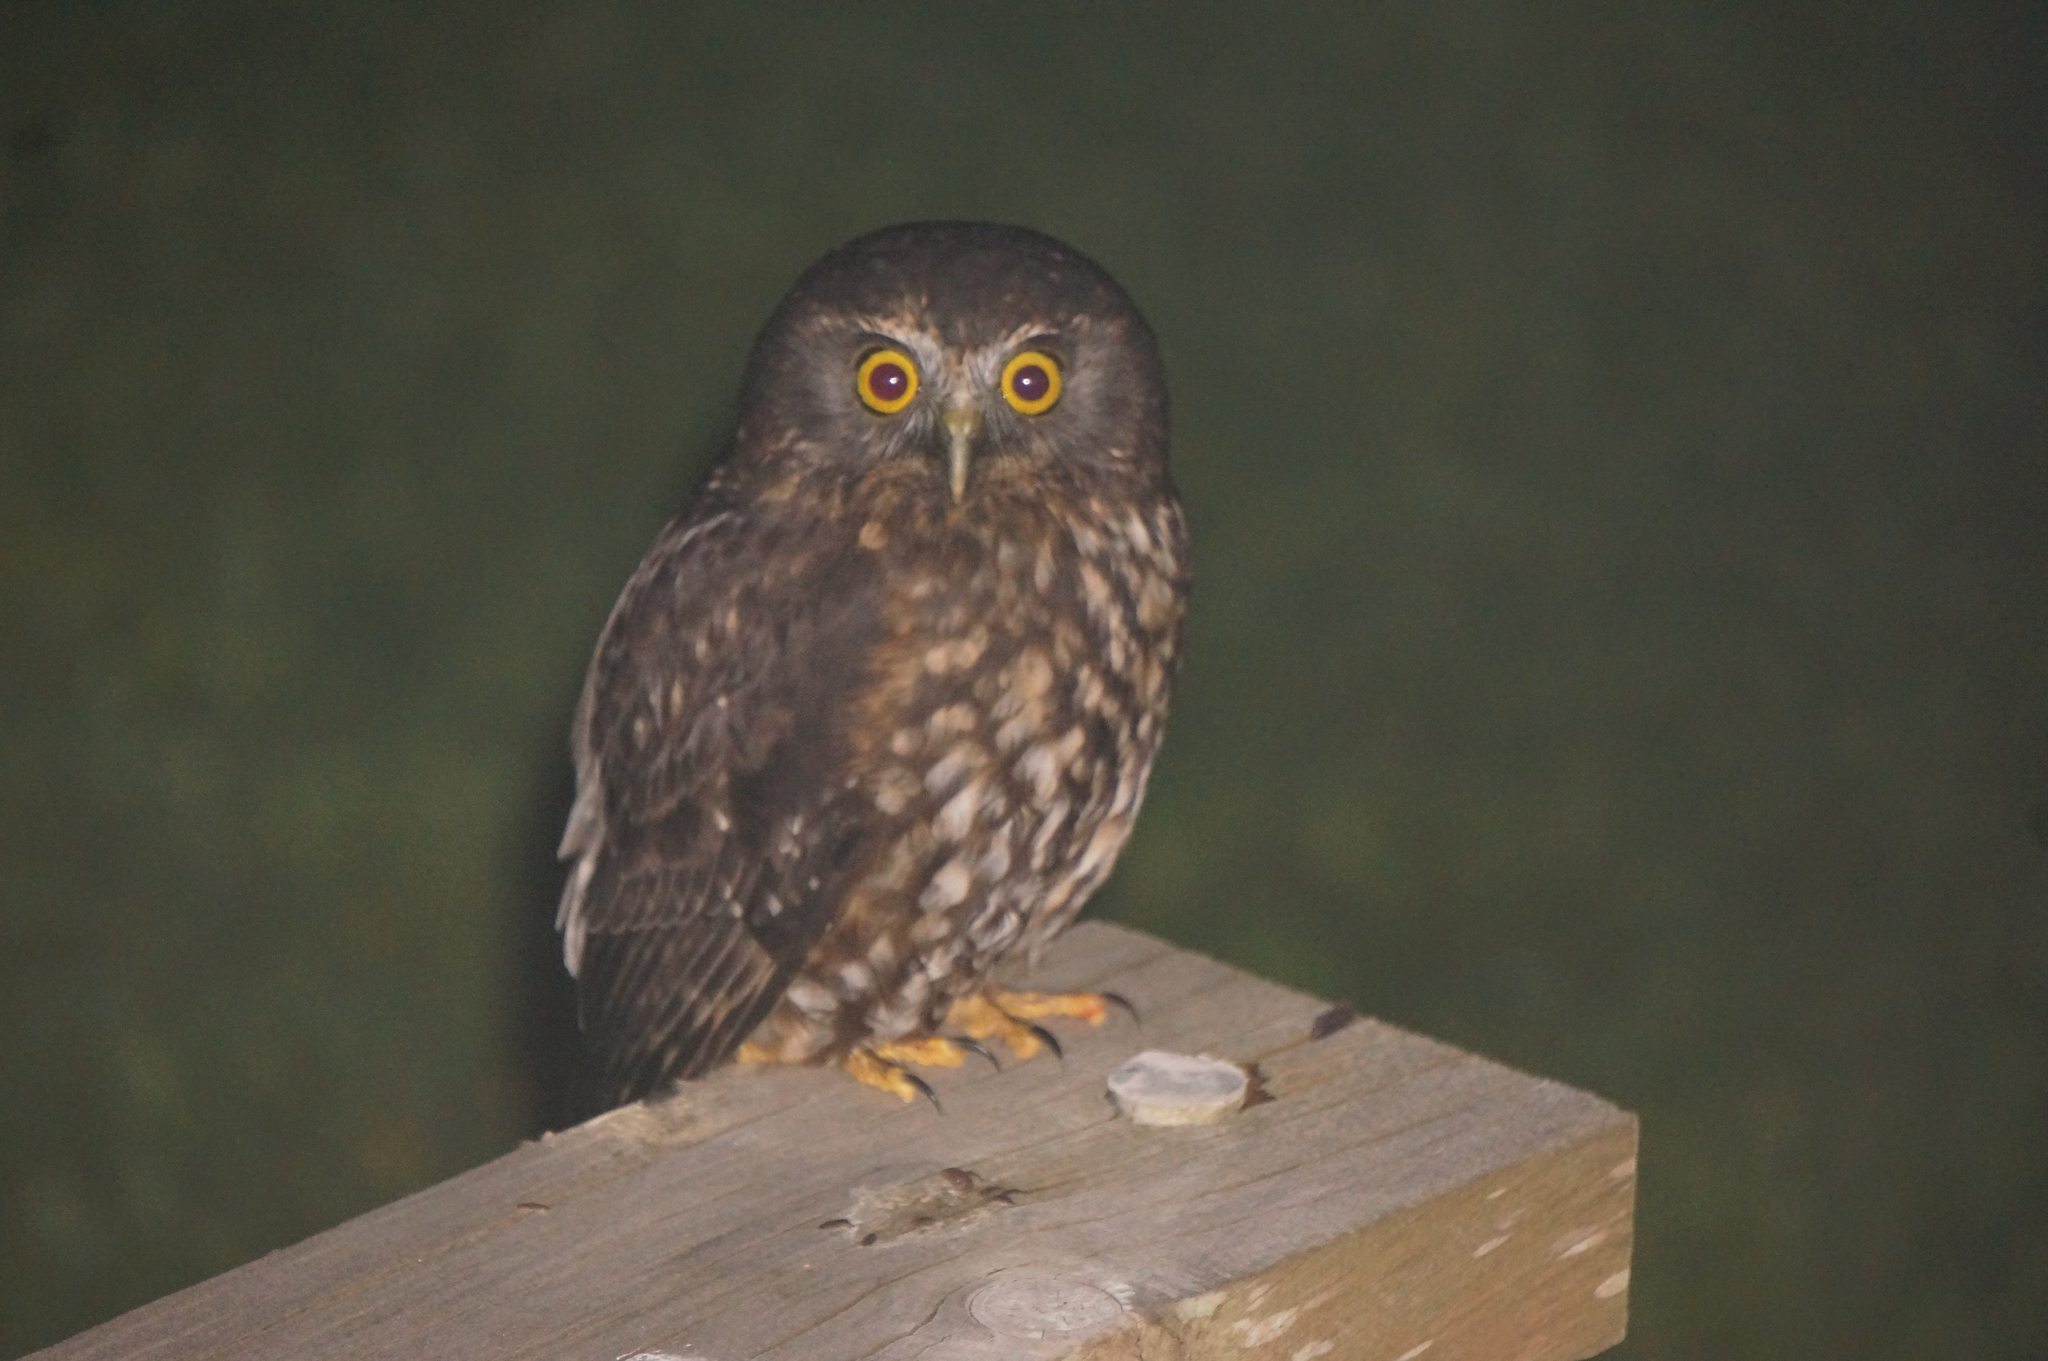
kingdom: Animalia
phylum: Chordata
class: Aves
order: Strigiformes
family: Strigidae
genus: Ninox
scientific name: Ninox novaeseelandiae
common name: Morepork
